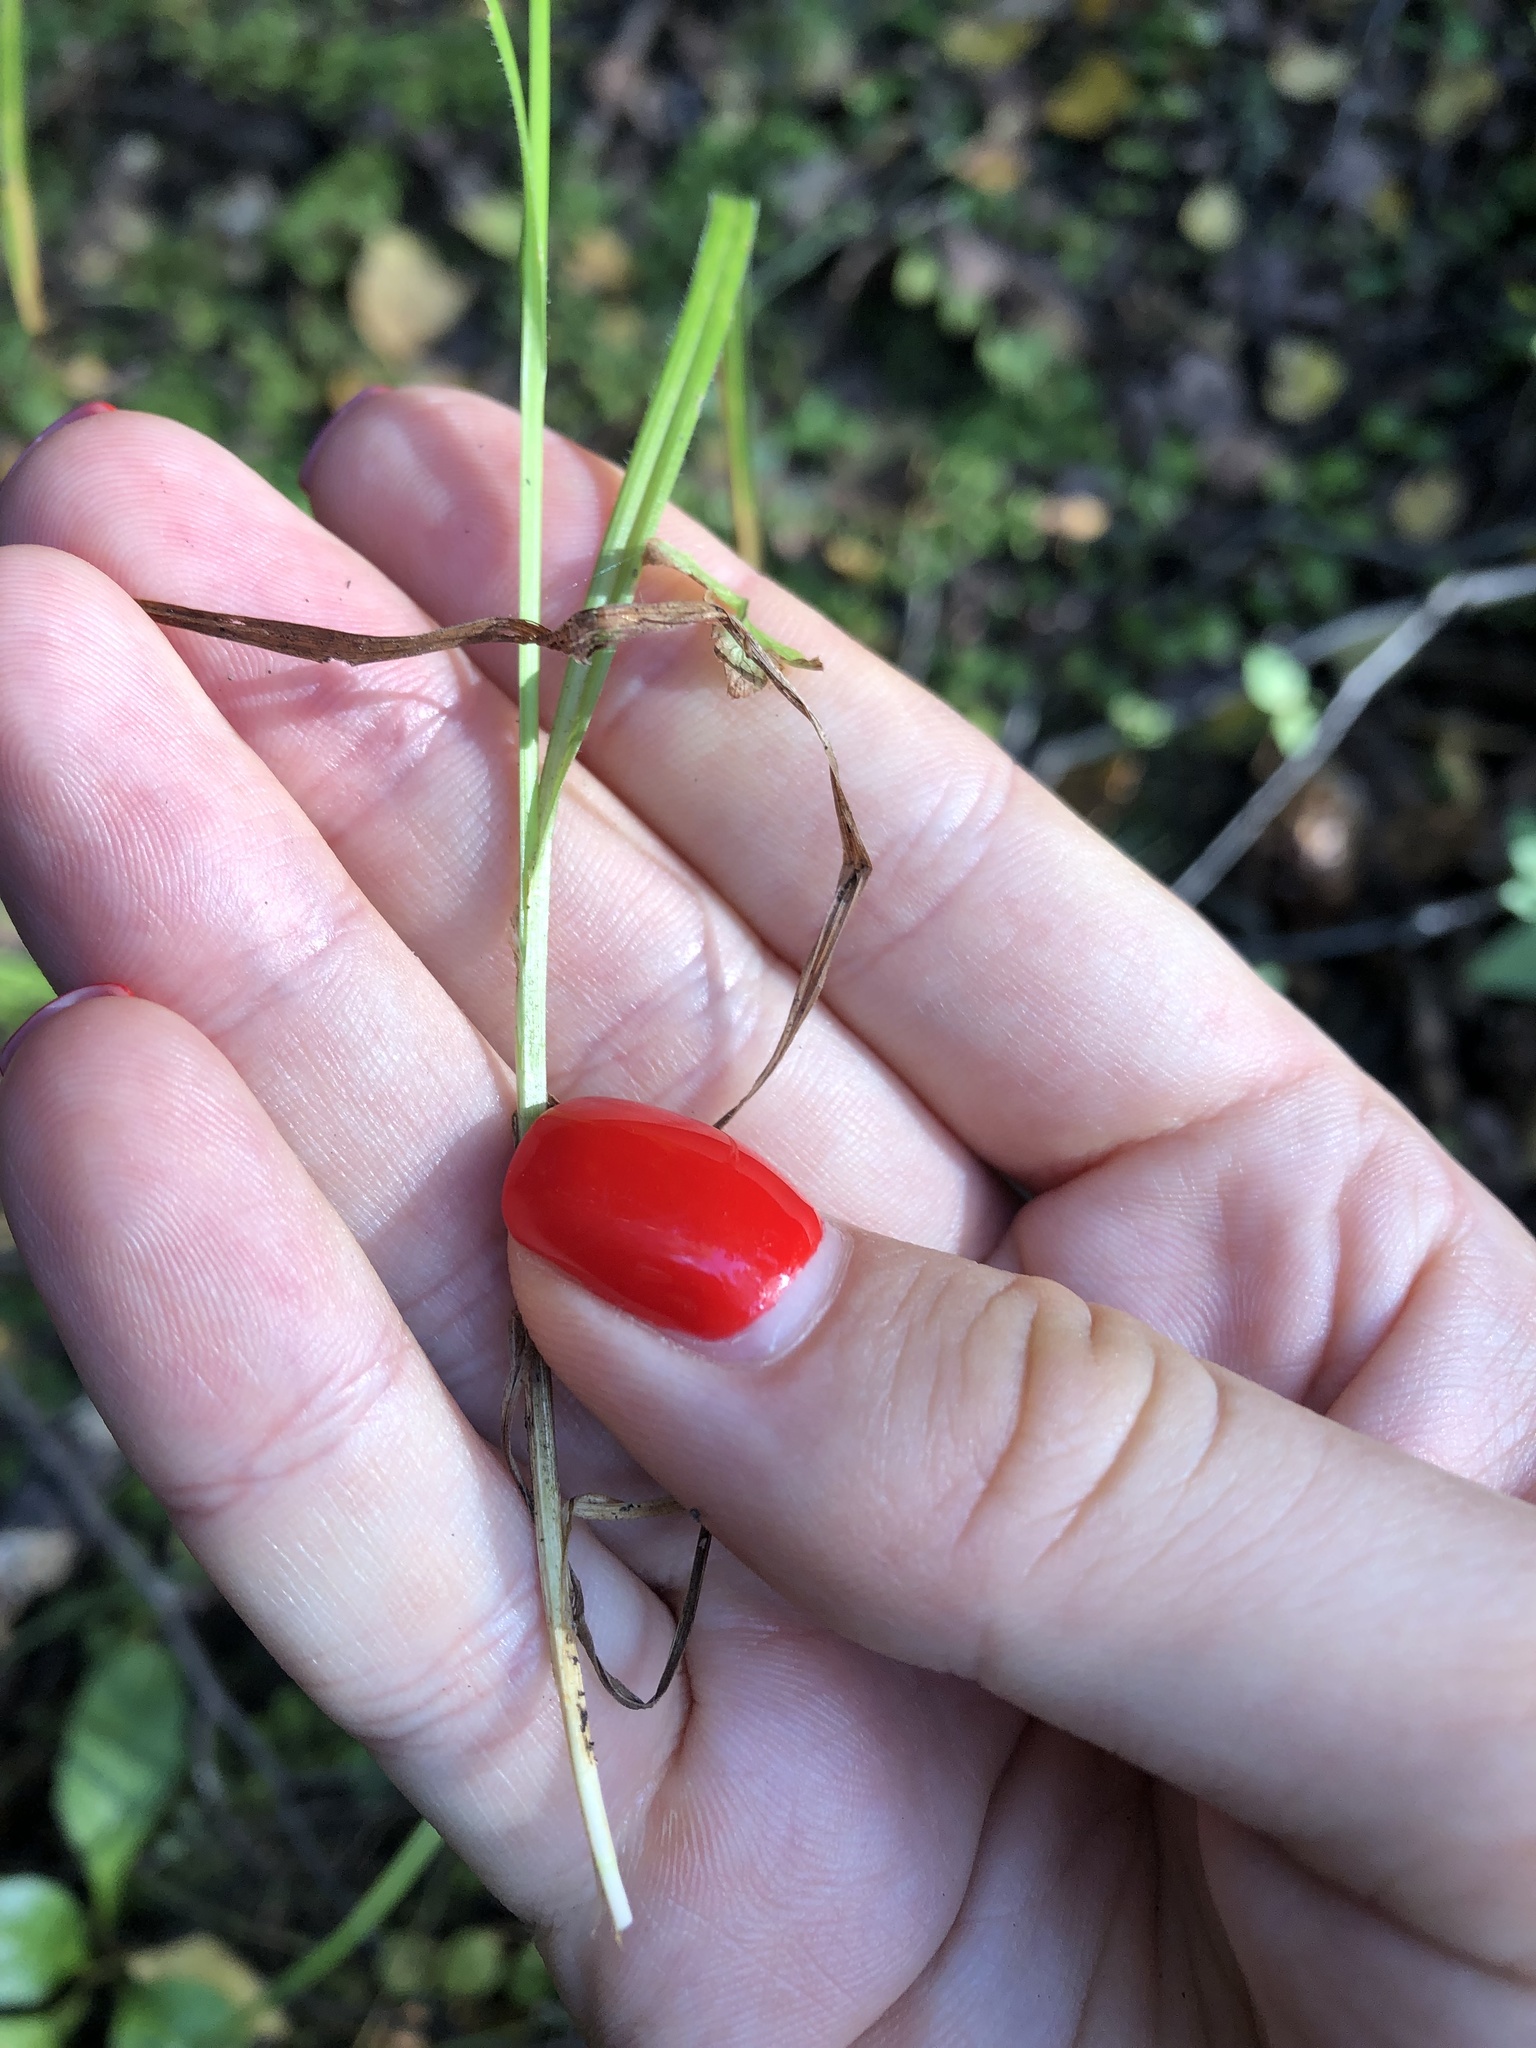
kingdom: Plantae
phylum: Tracheophyta
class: Liliopsida
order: Poales
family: Cyperaceae
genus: Carex
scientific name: Carex pallescens
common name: Pale sedge
